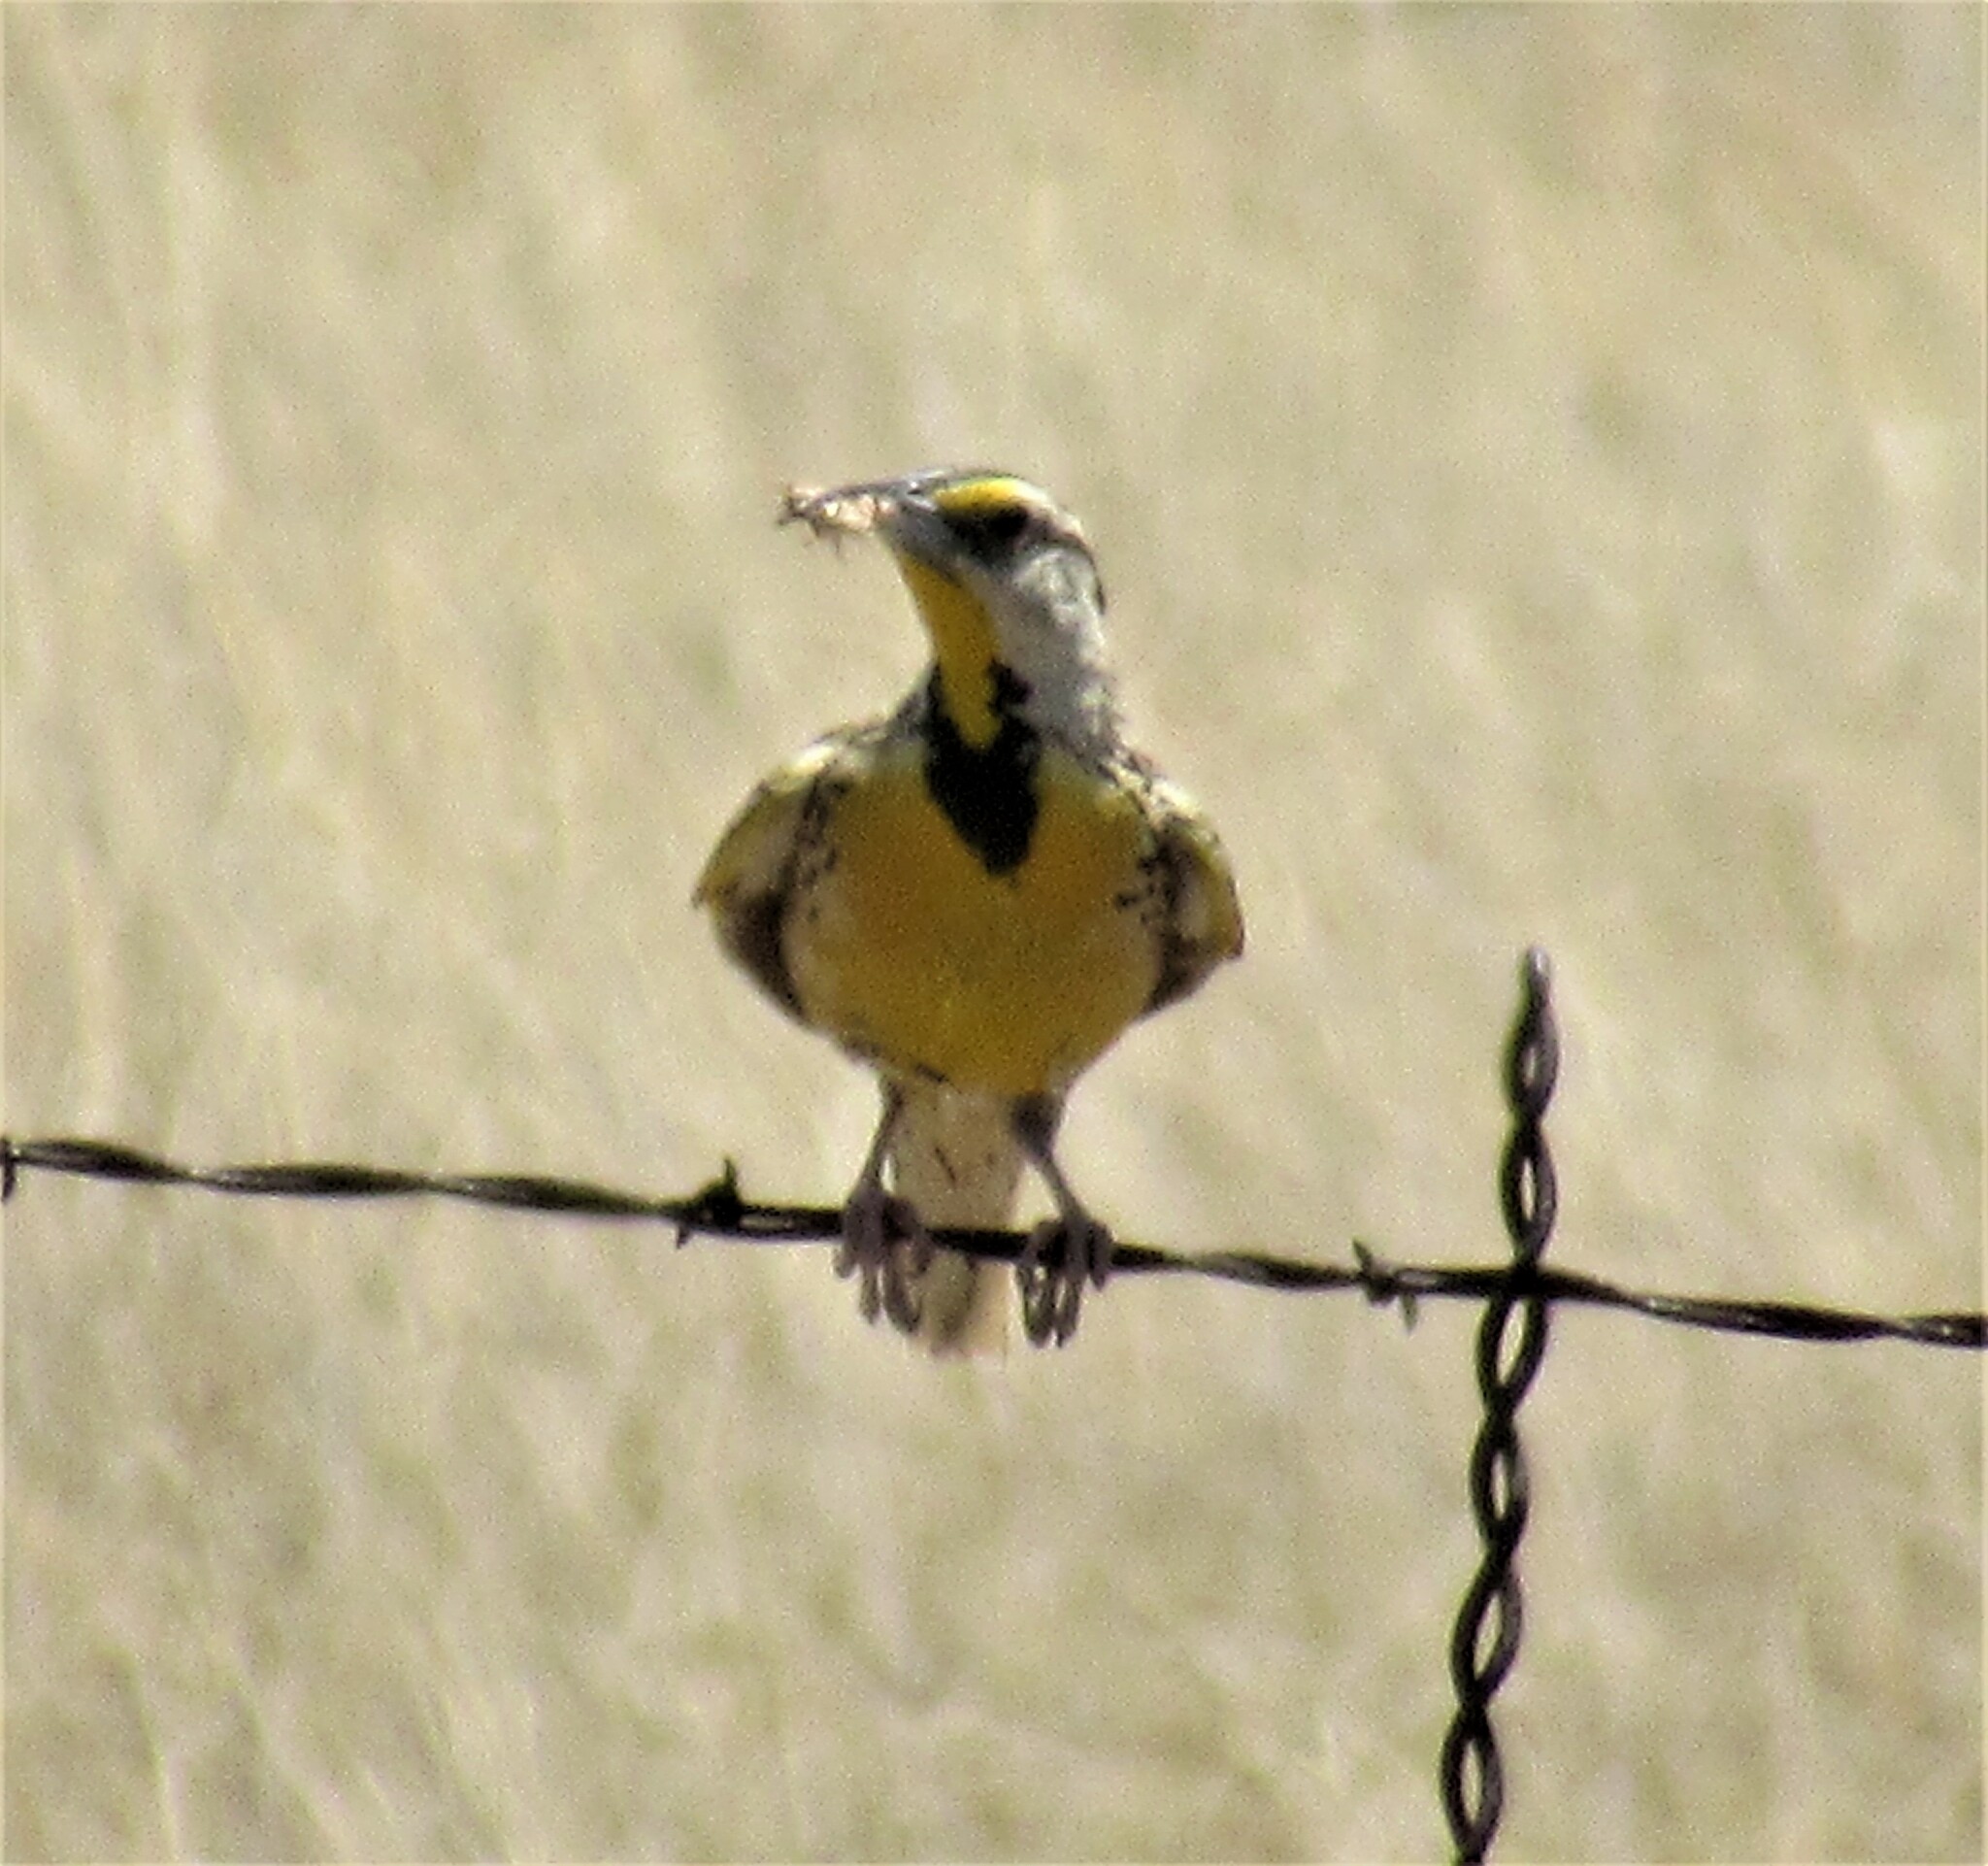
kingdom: Animalia
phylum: Chordata
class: Aves
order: Passeriformes
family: Icteridae
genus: Sturnella
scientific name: Sturnella lilianae
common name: Lilian's meadowlark
